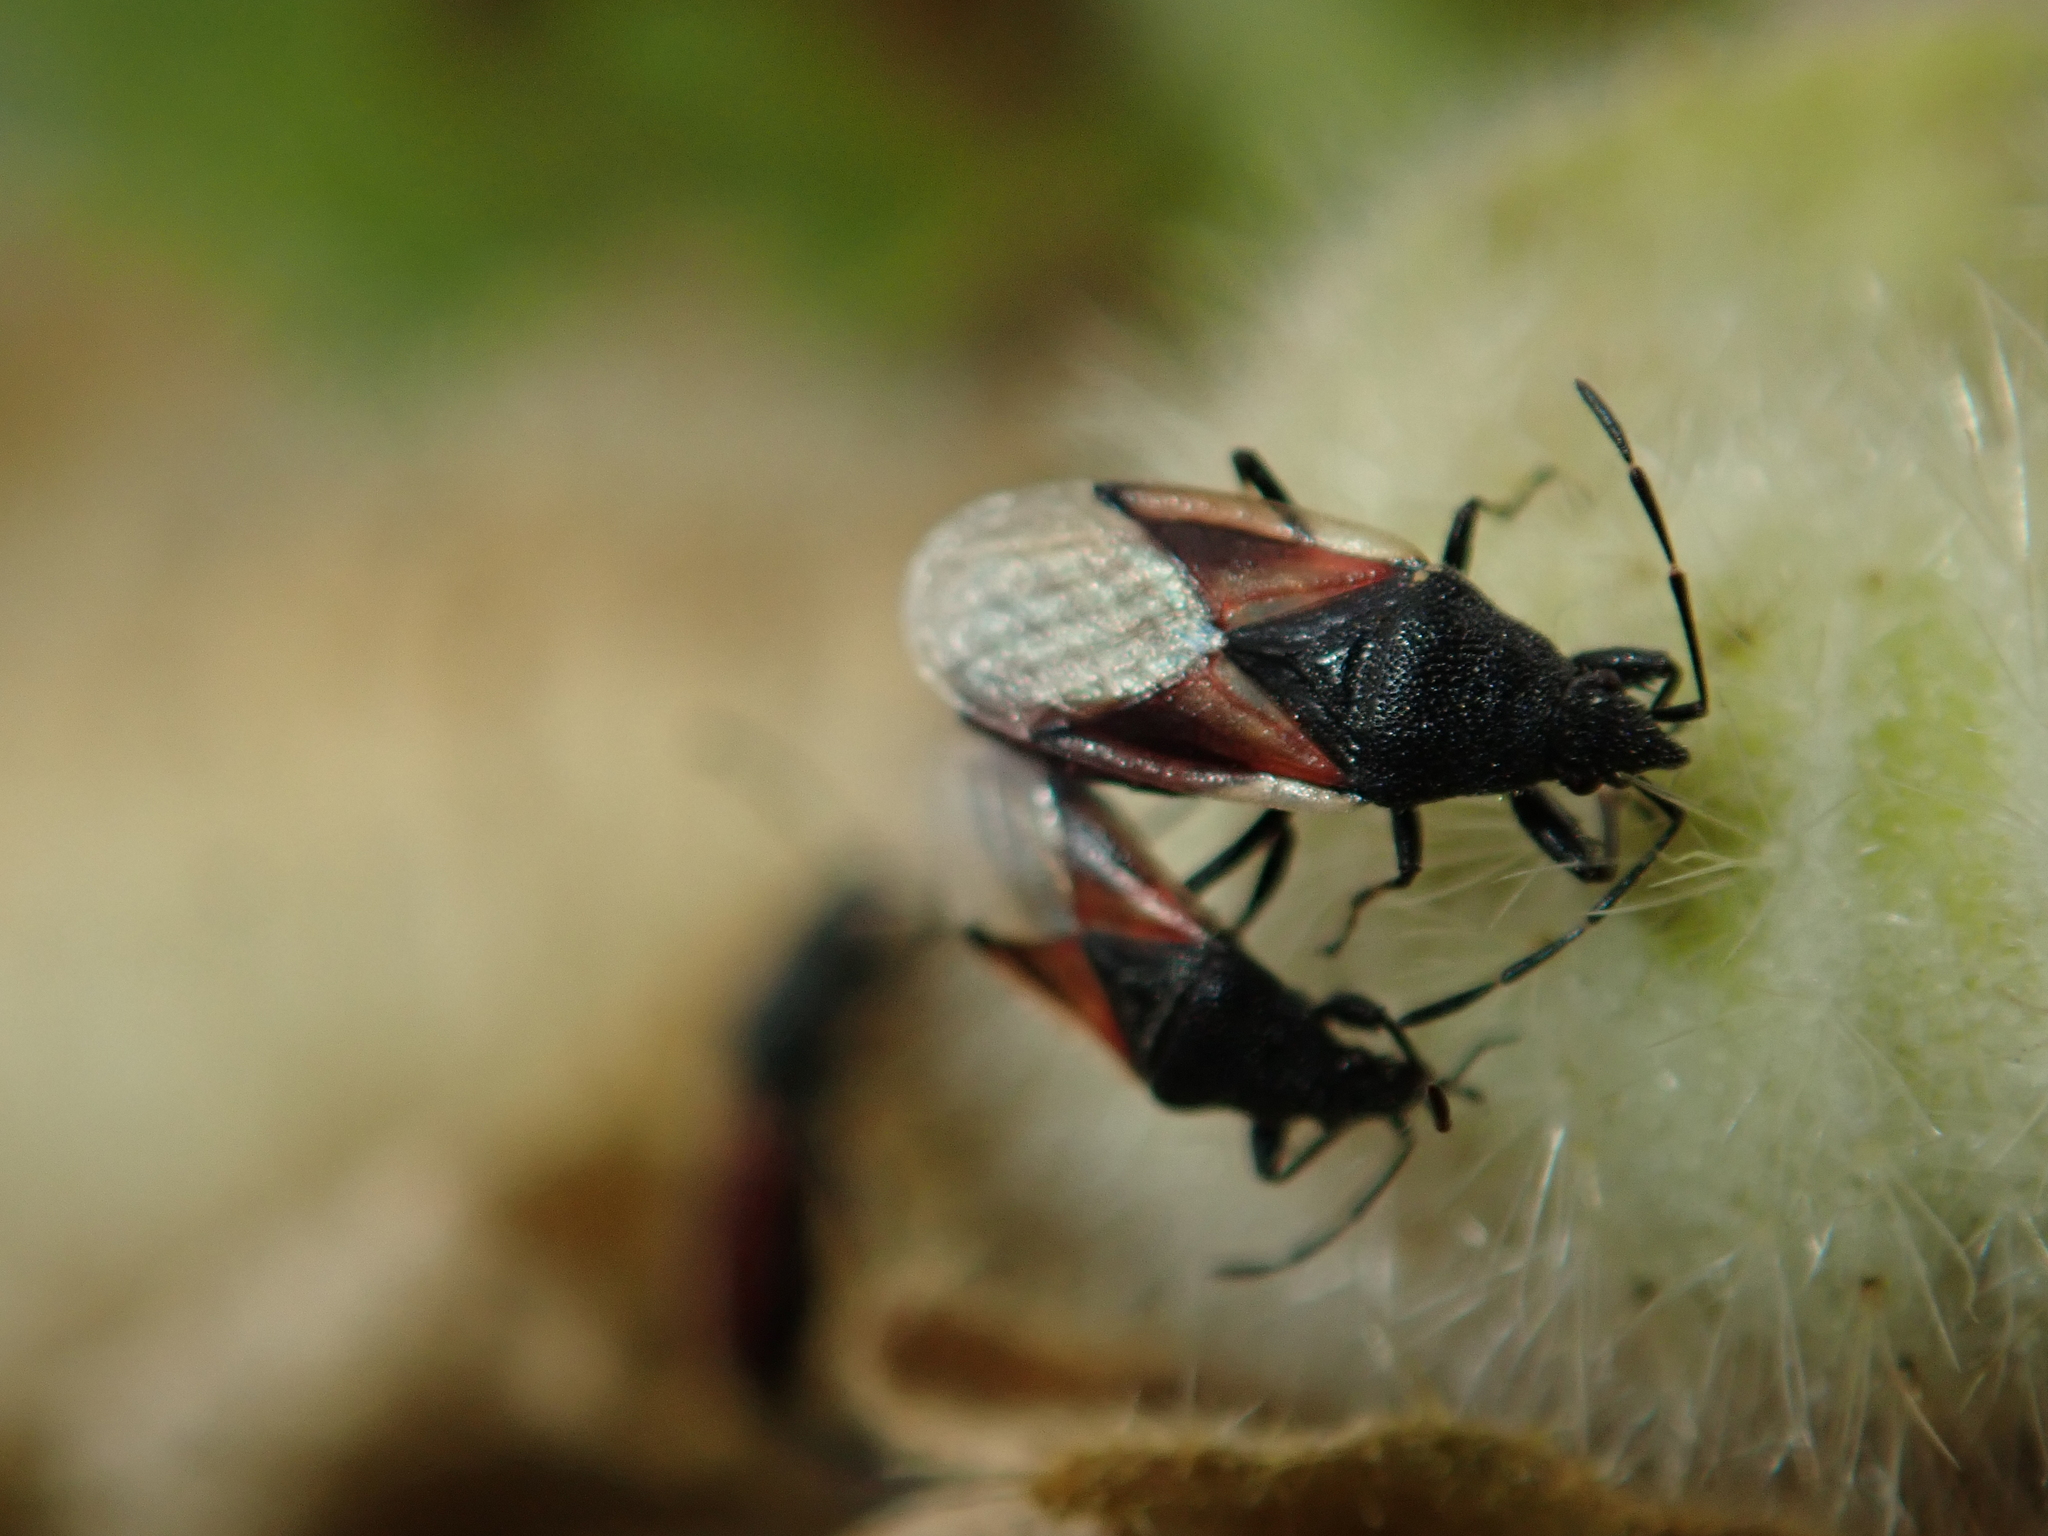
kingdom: Animalia
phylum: Arthropoda
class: Insecta
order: Hemiptera
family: Oxycarenidae
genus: Oxycarenus
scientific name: Oxycarenus lavaterae
